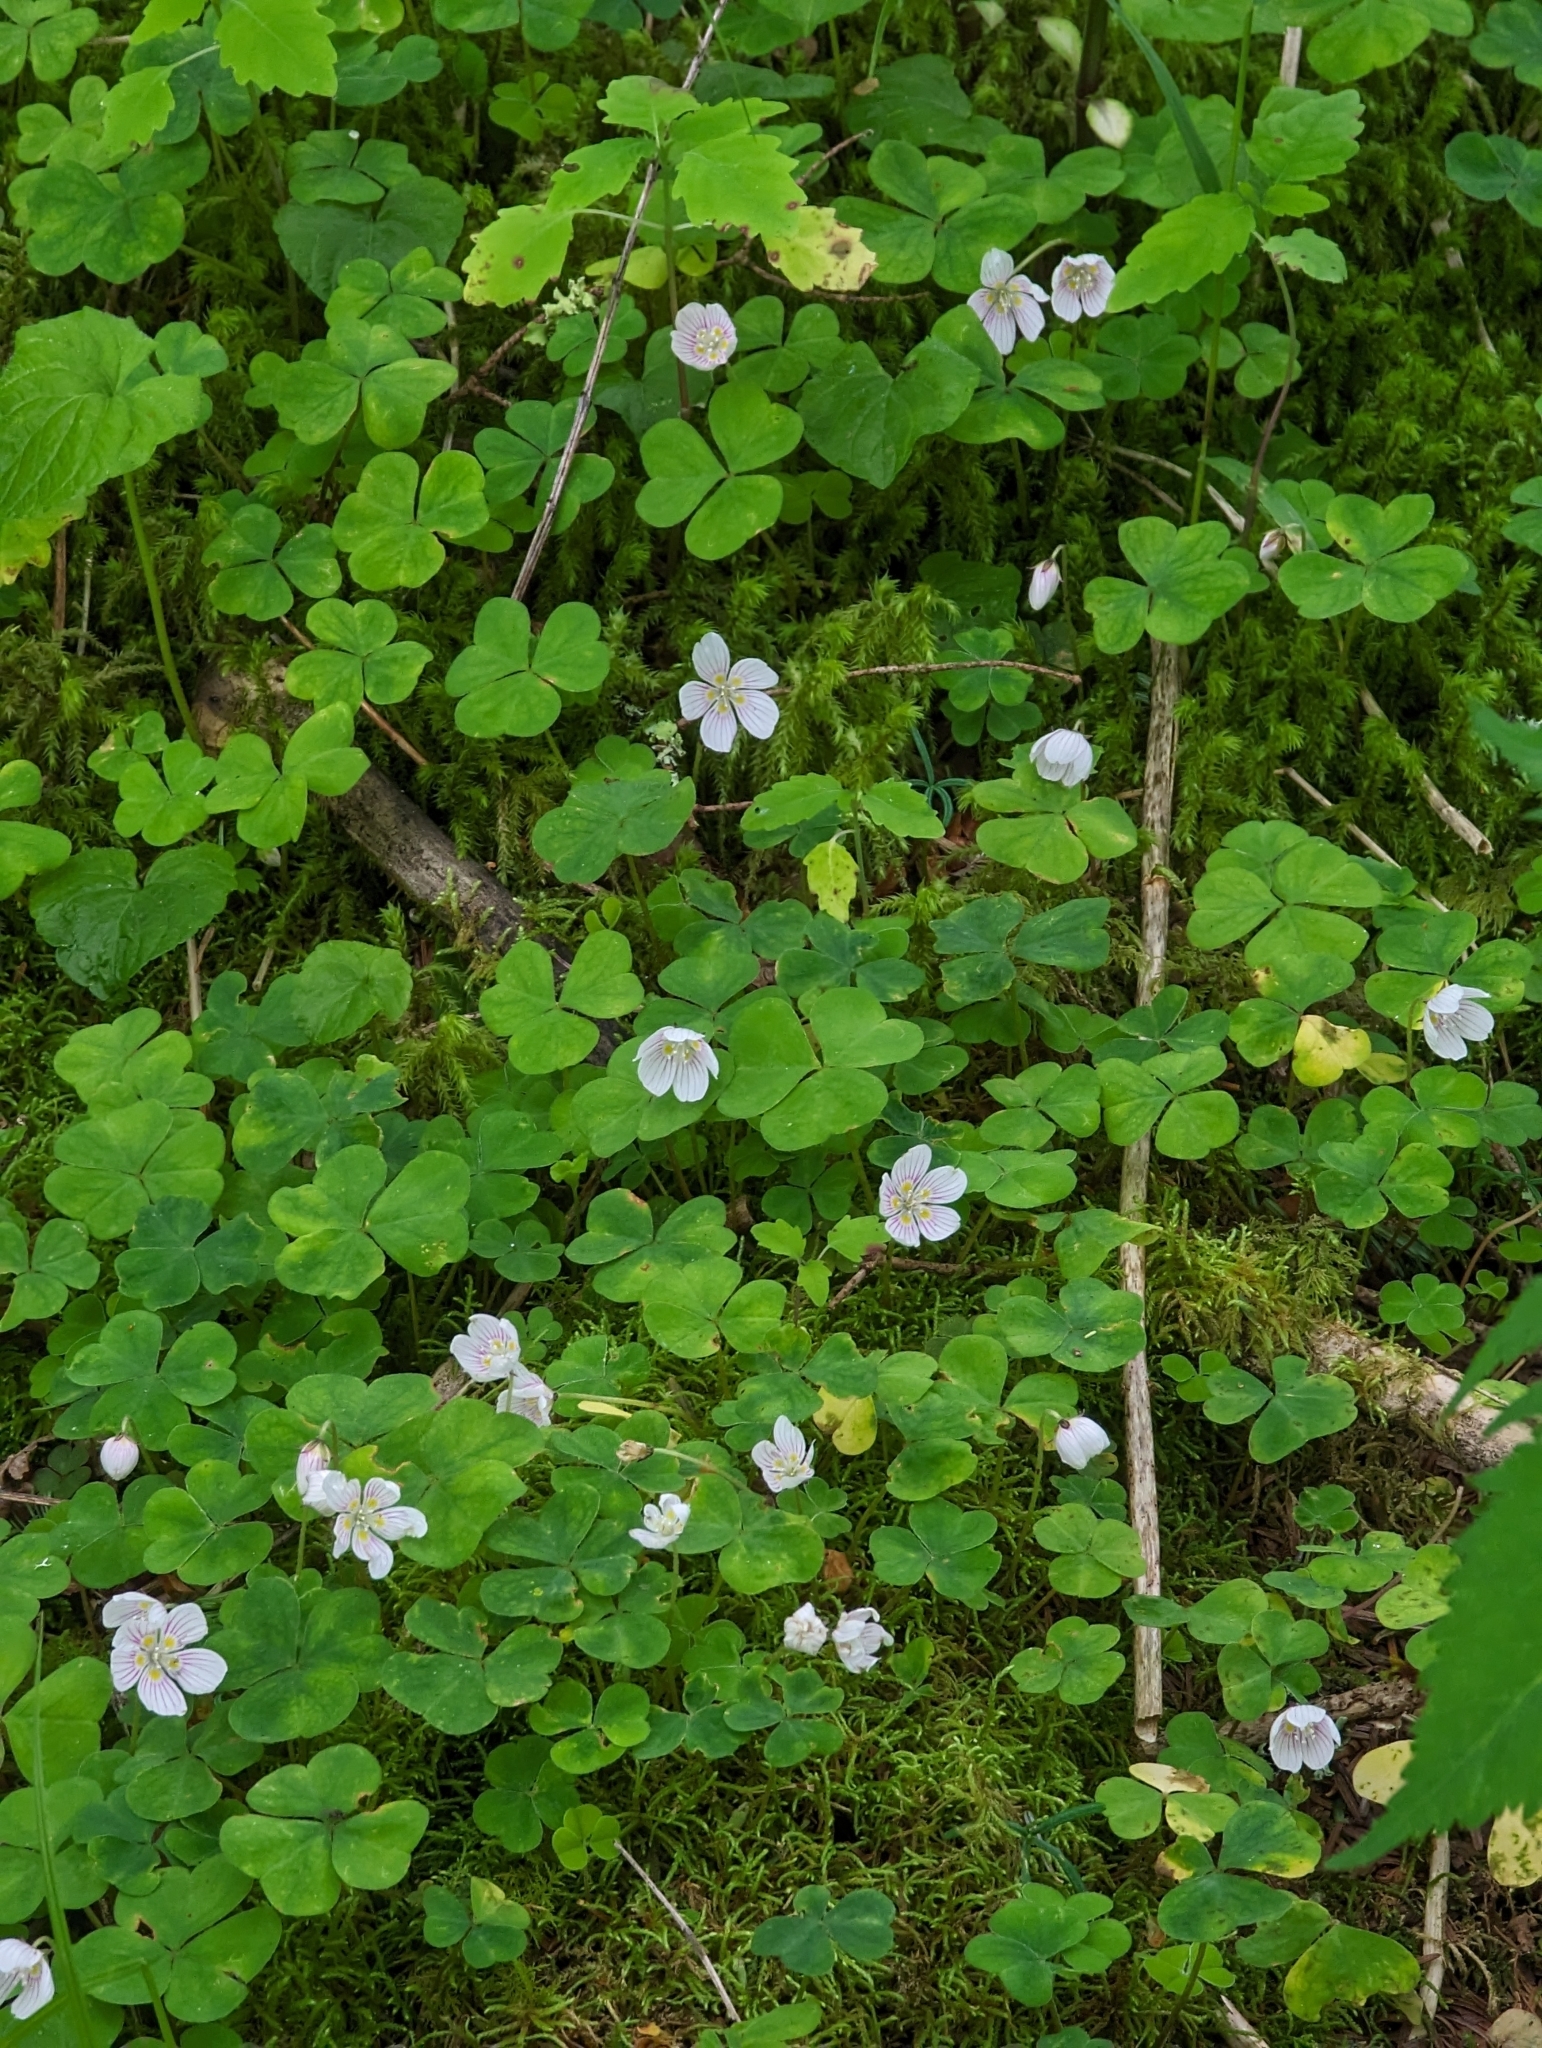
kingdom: Plantae
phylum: Tracheophyta
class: Magnoliopsida
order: Oxalidales
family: Oxalidaceae
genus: Oxalis
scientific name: Oxalis montana
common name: American wood-sorrel
